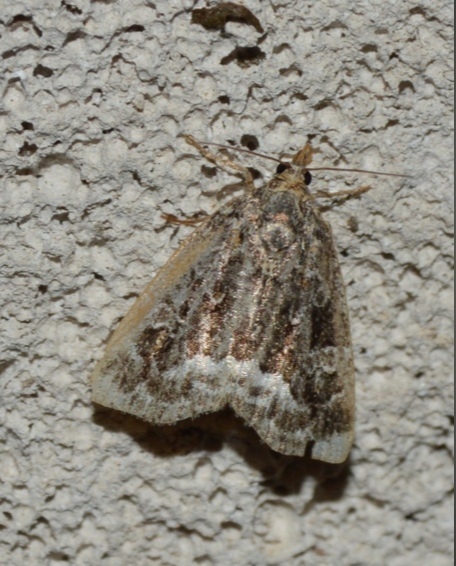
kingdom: Animalia
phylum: Arthropoda
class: Insecta
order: Lepidoptera
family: Noctuidae
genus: Deltote
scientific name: Deltote pygarga
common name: Marbled white spot
